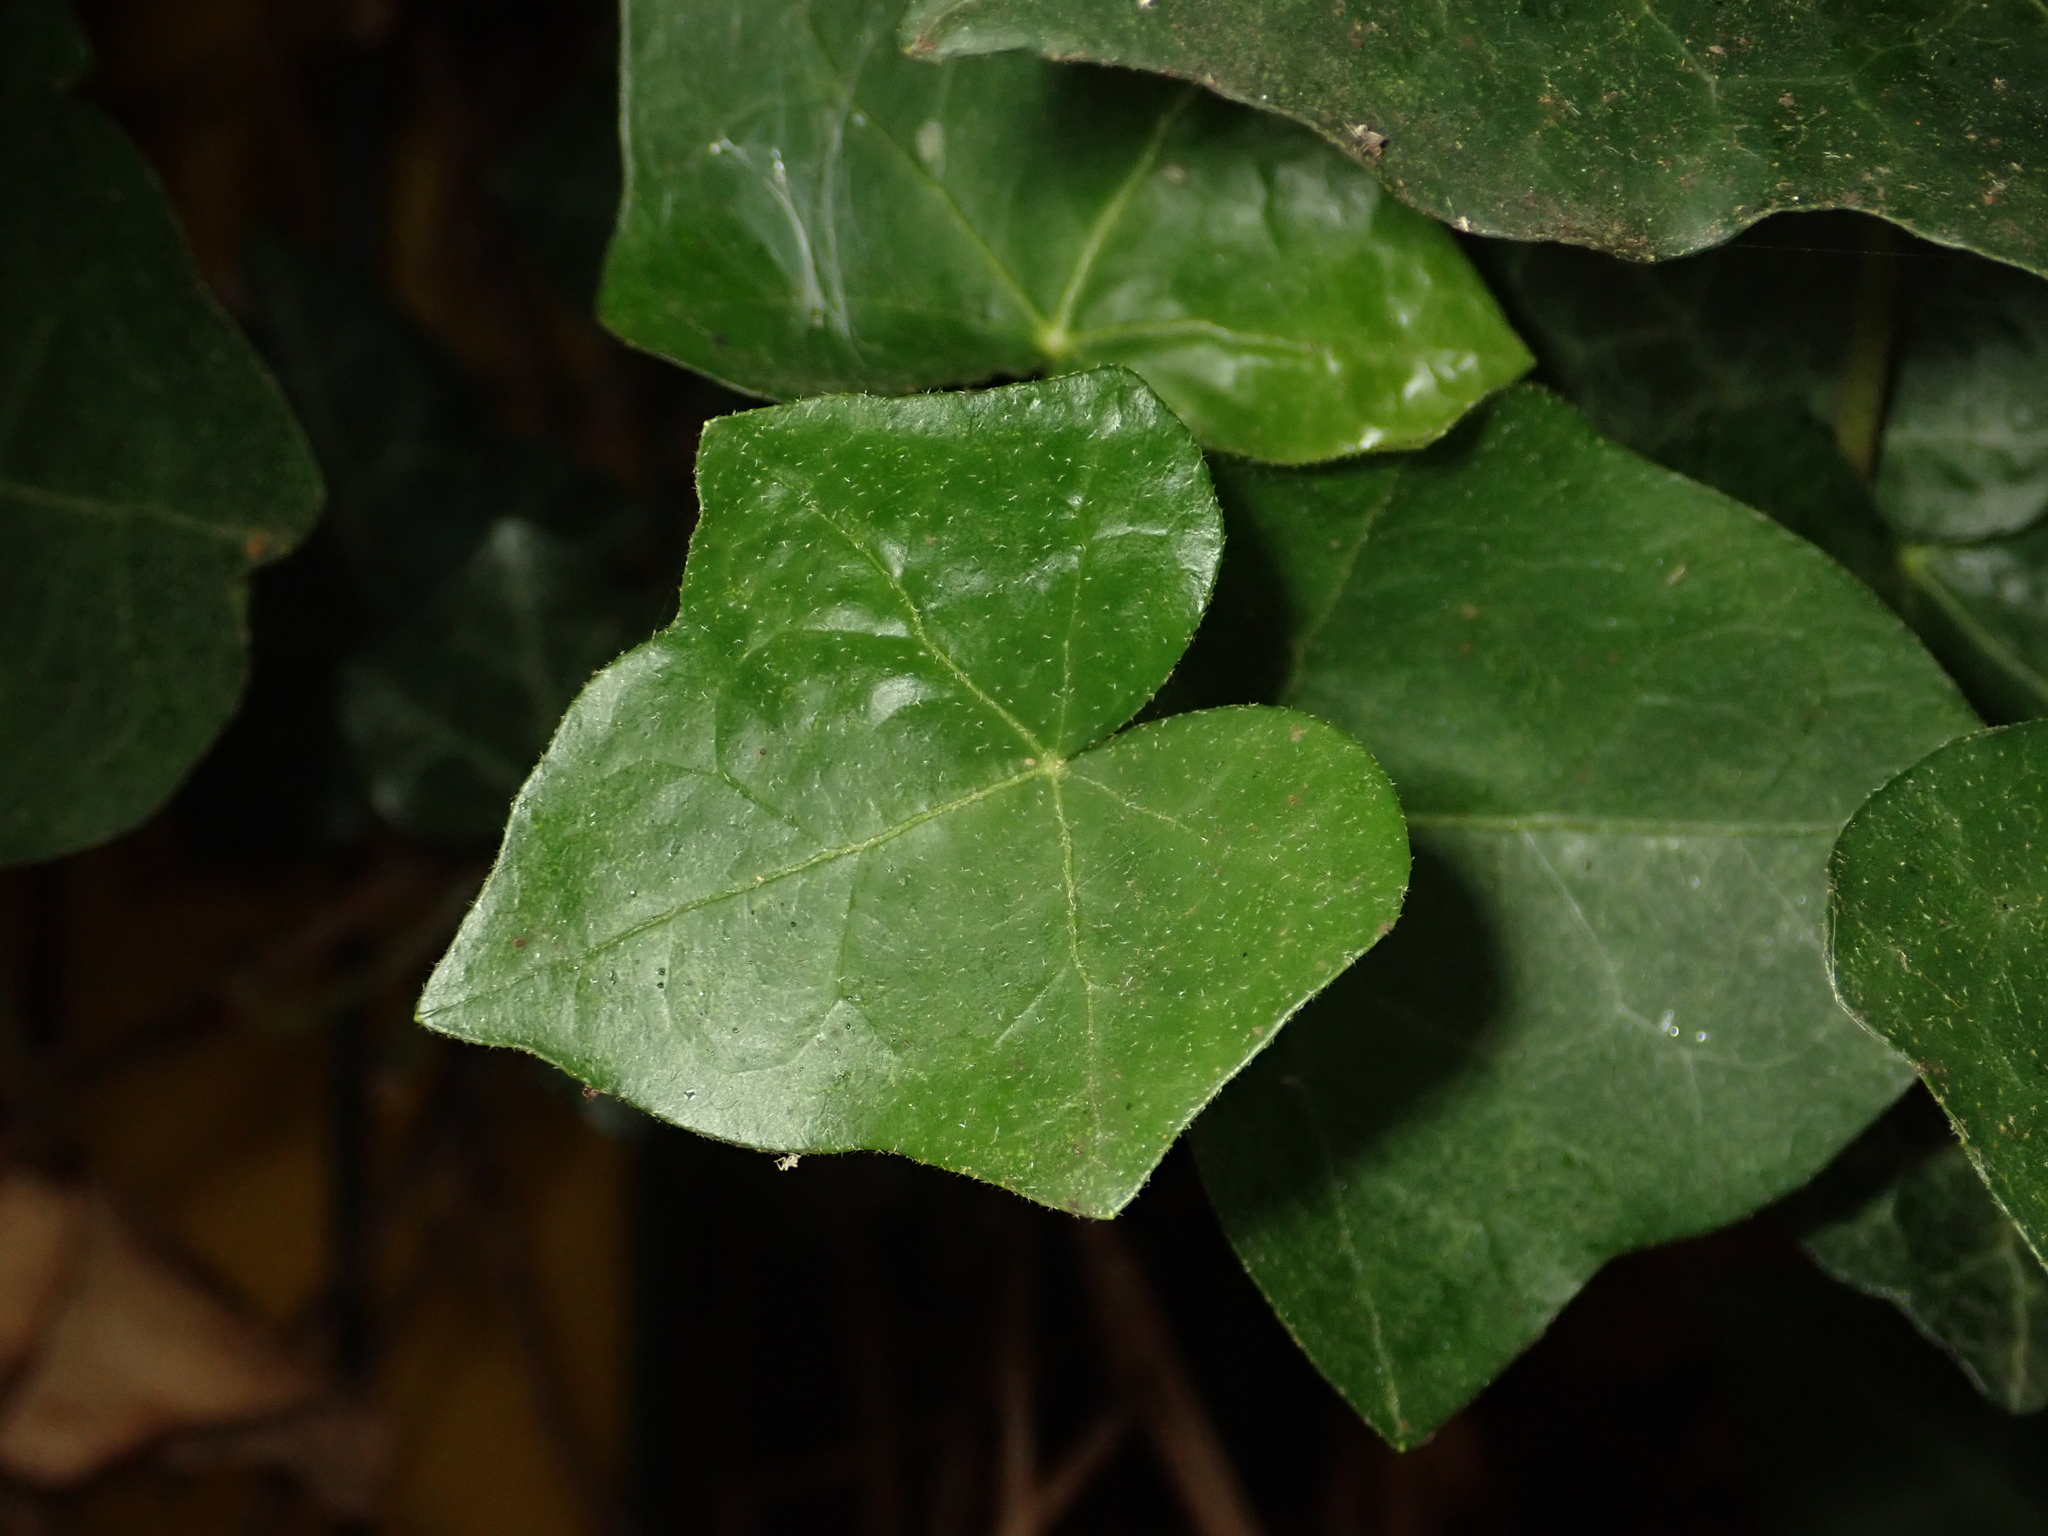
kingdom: Plantae
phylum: Tracheophyta
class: Magnoliopsida
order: Apiales
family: Araliaceae
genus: Hedera
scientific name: Hedera helix
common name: Ivy
